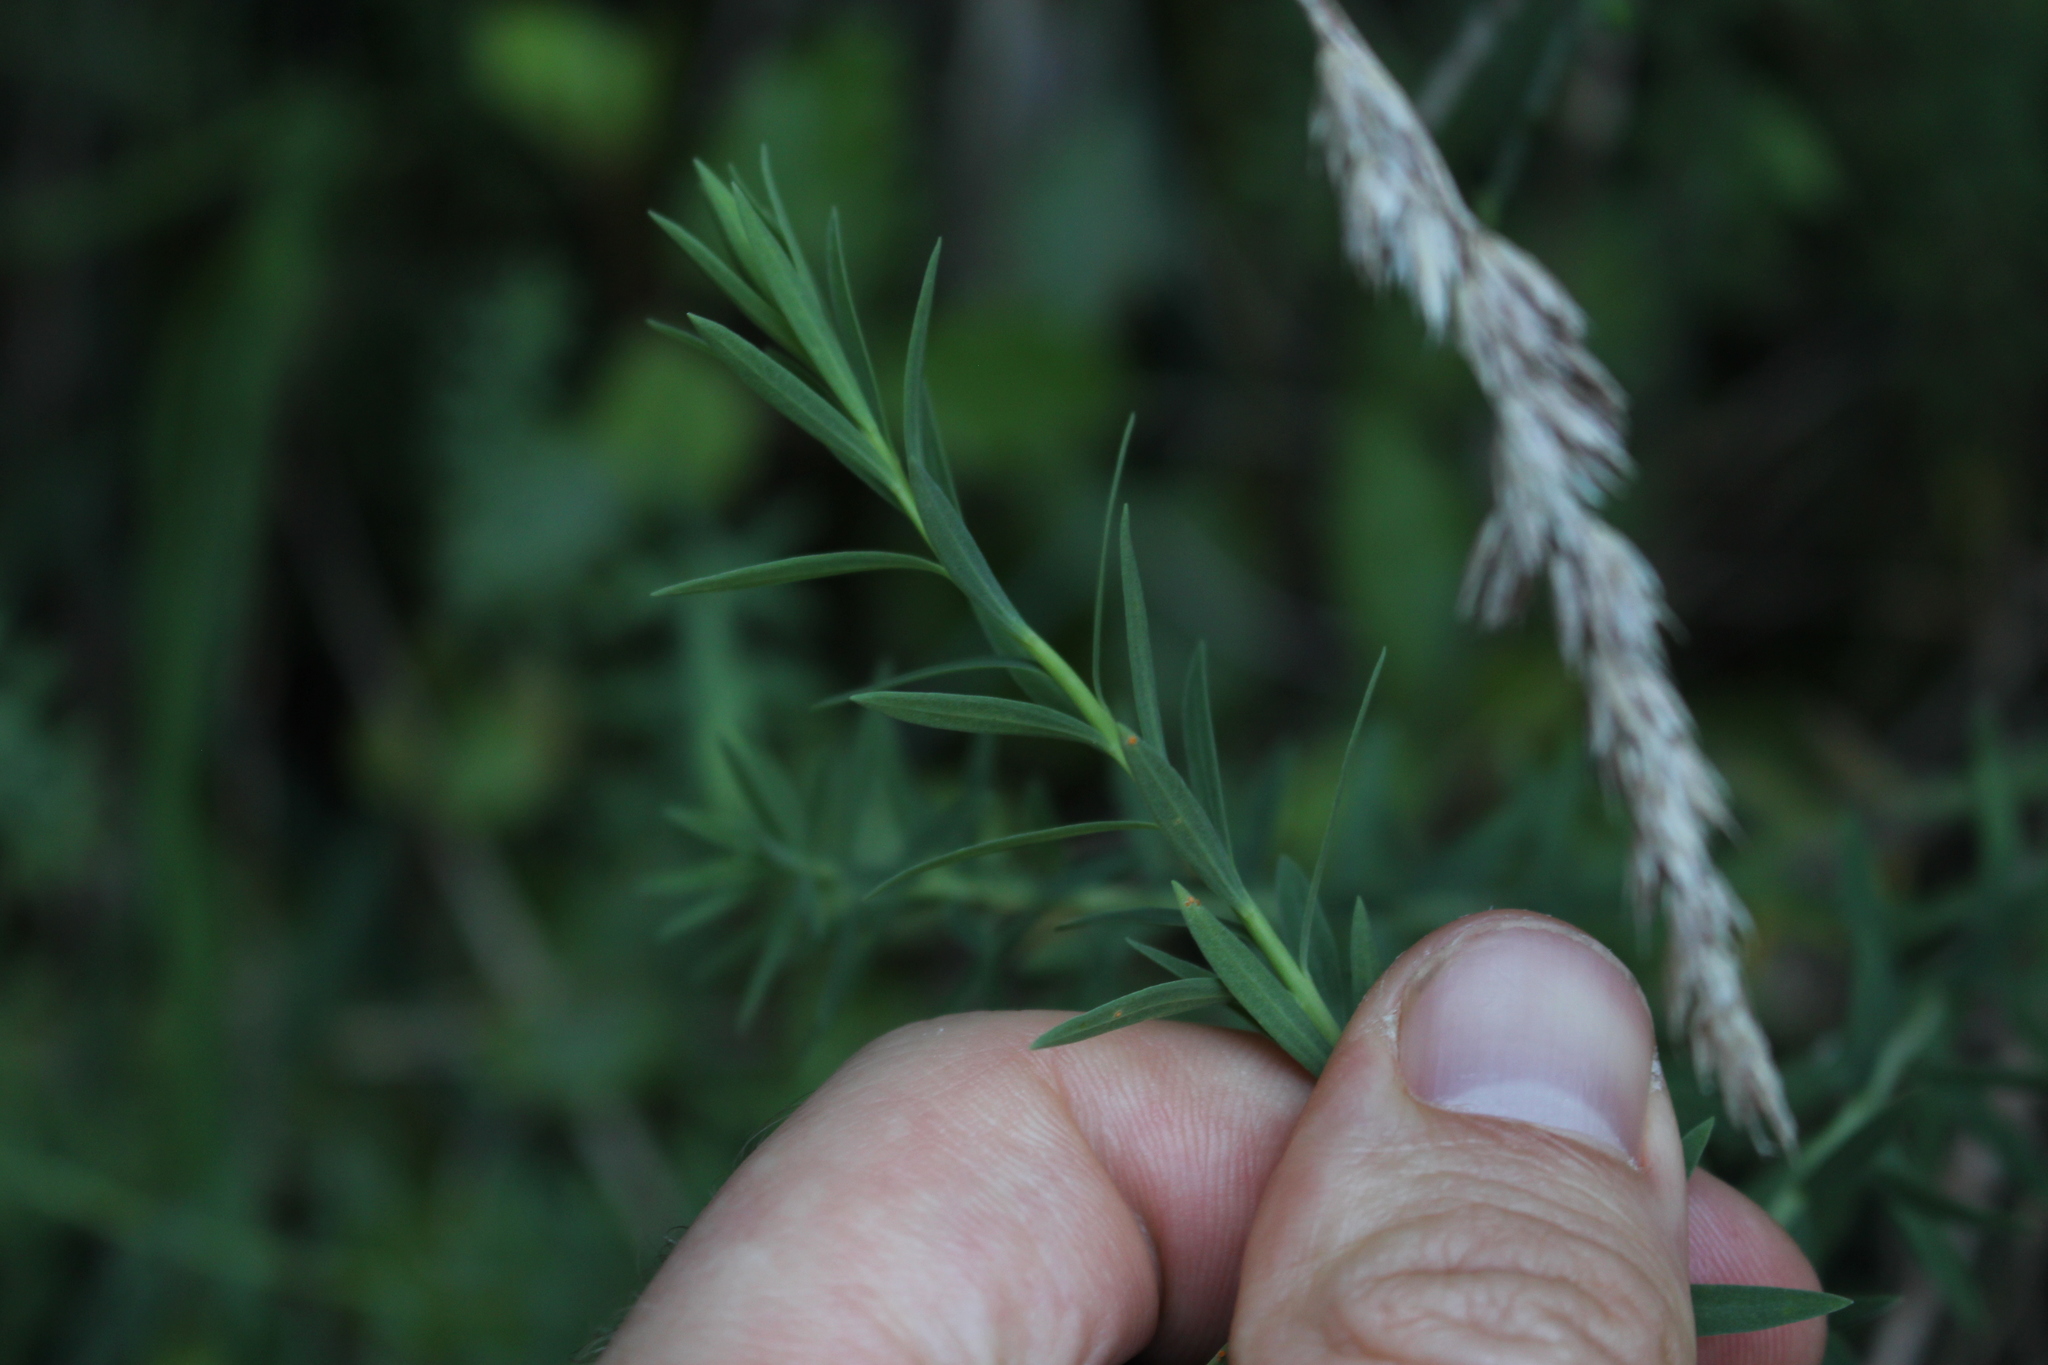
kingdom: Plantae
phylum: Tracheophyta
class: Magnoliopsida
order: Malpighiales
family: Linaceae
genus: Linum
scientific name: Linum monogynum
